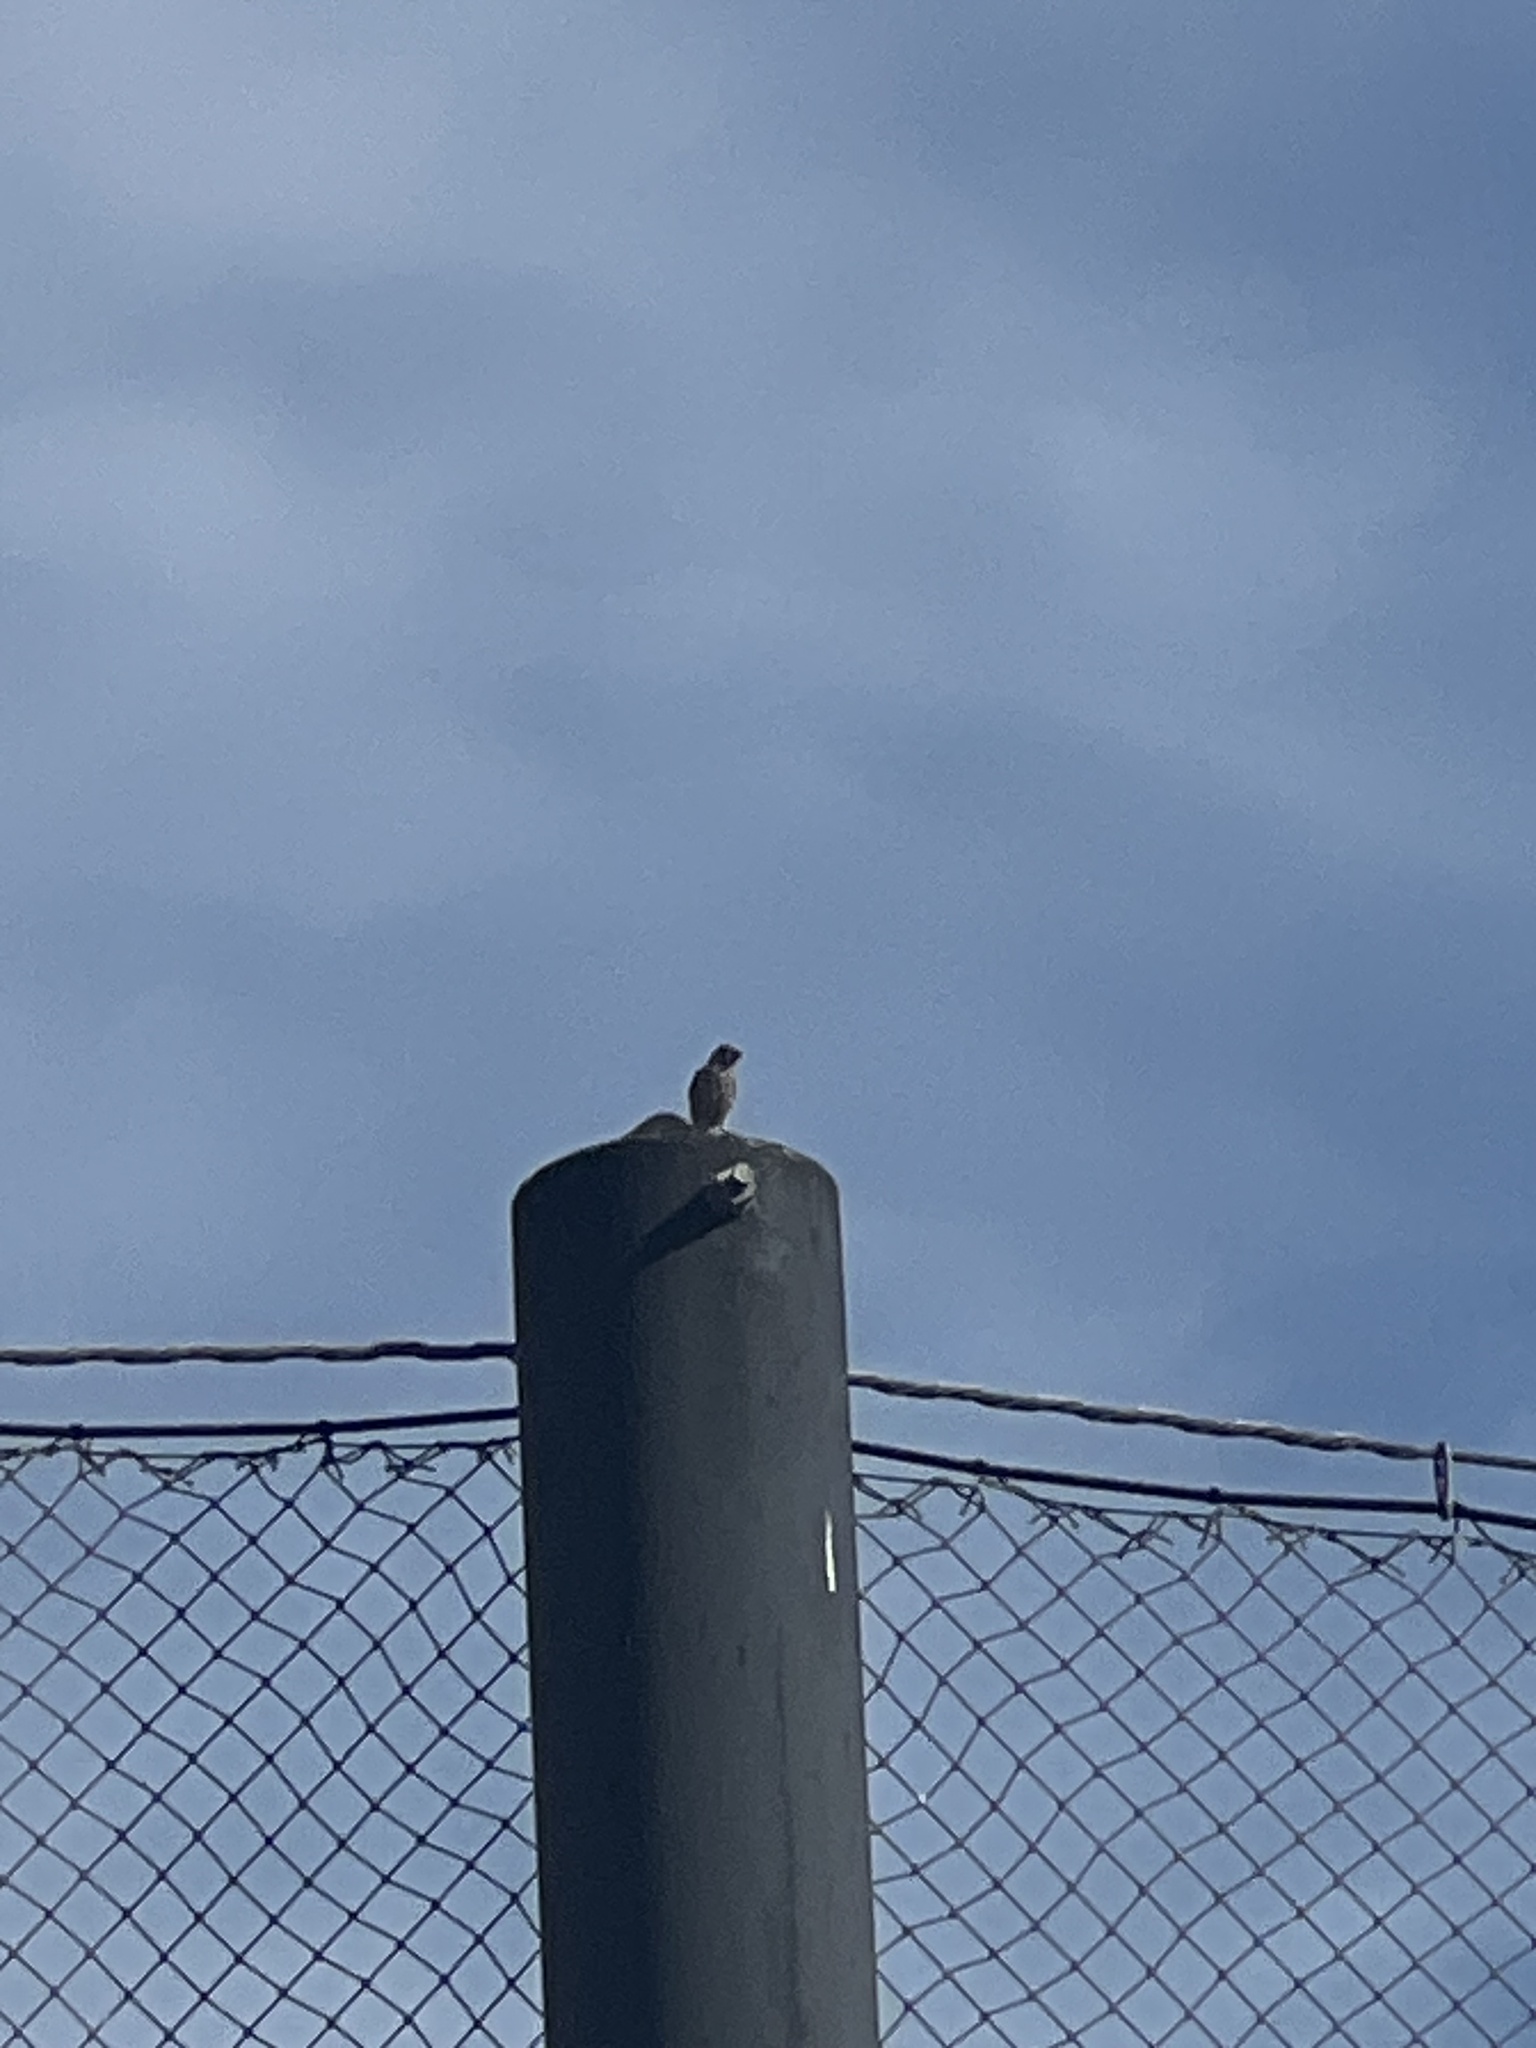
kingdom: Animalia
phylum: Chordata
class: Aves
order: Passeriformes
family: Fringillidae
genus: Haemorhous
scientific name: Haemorhous mexicanus
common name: House finch
